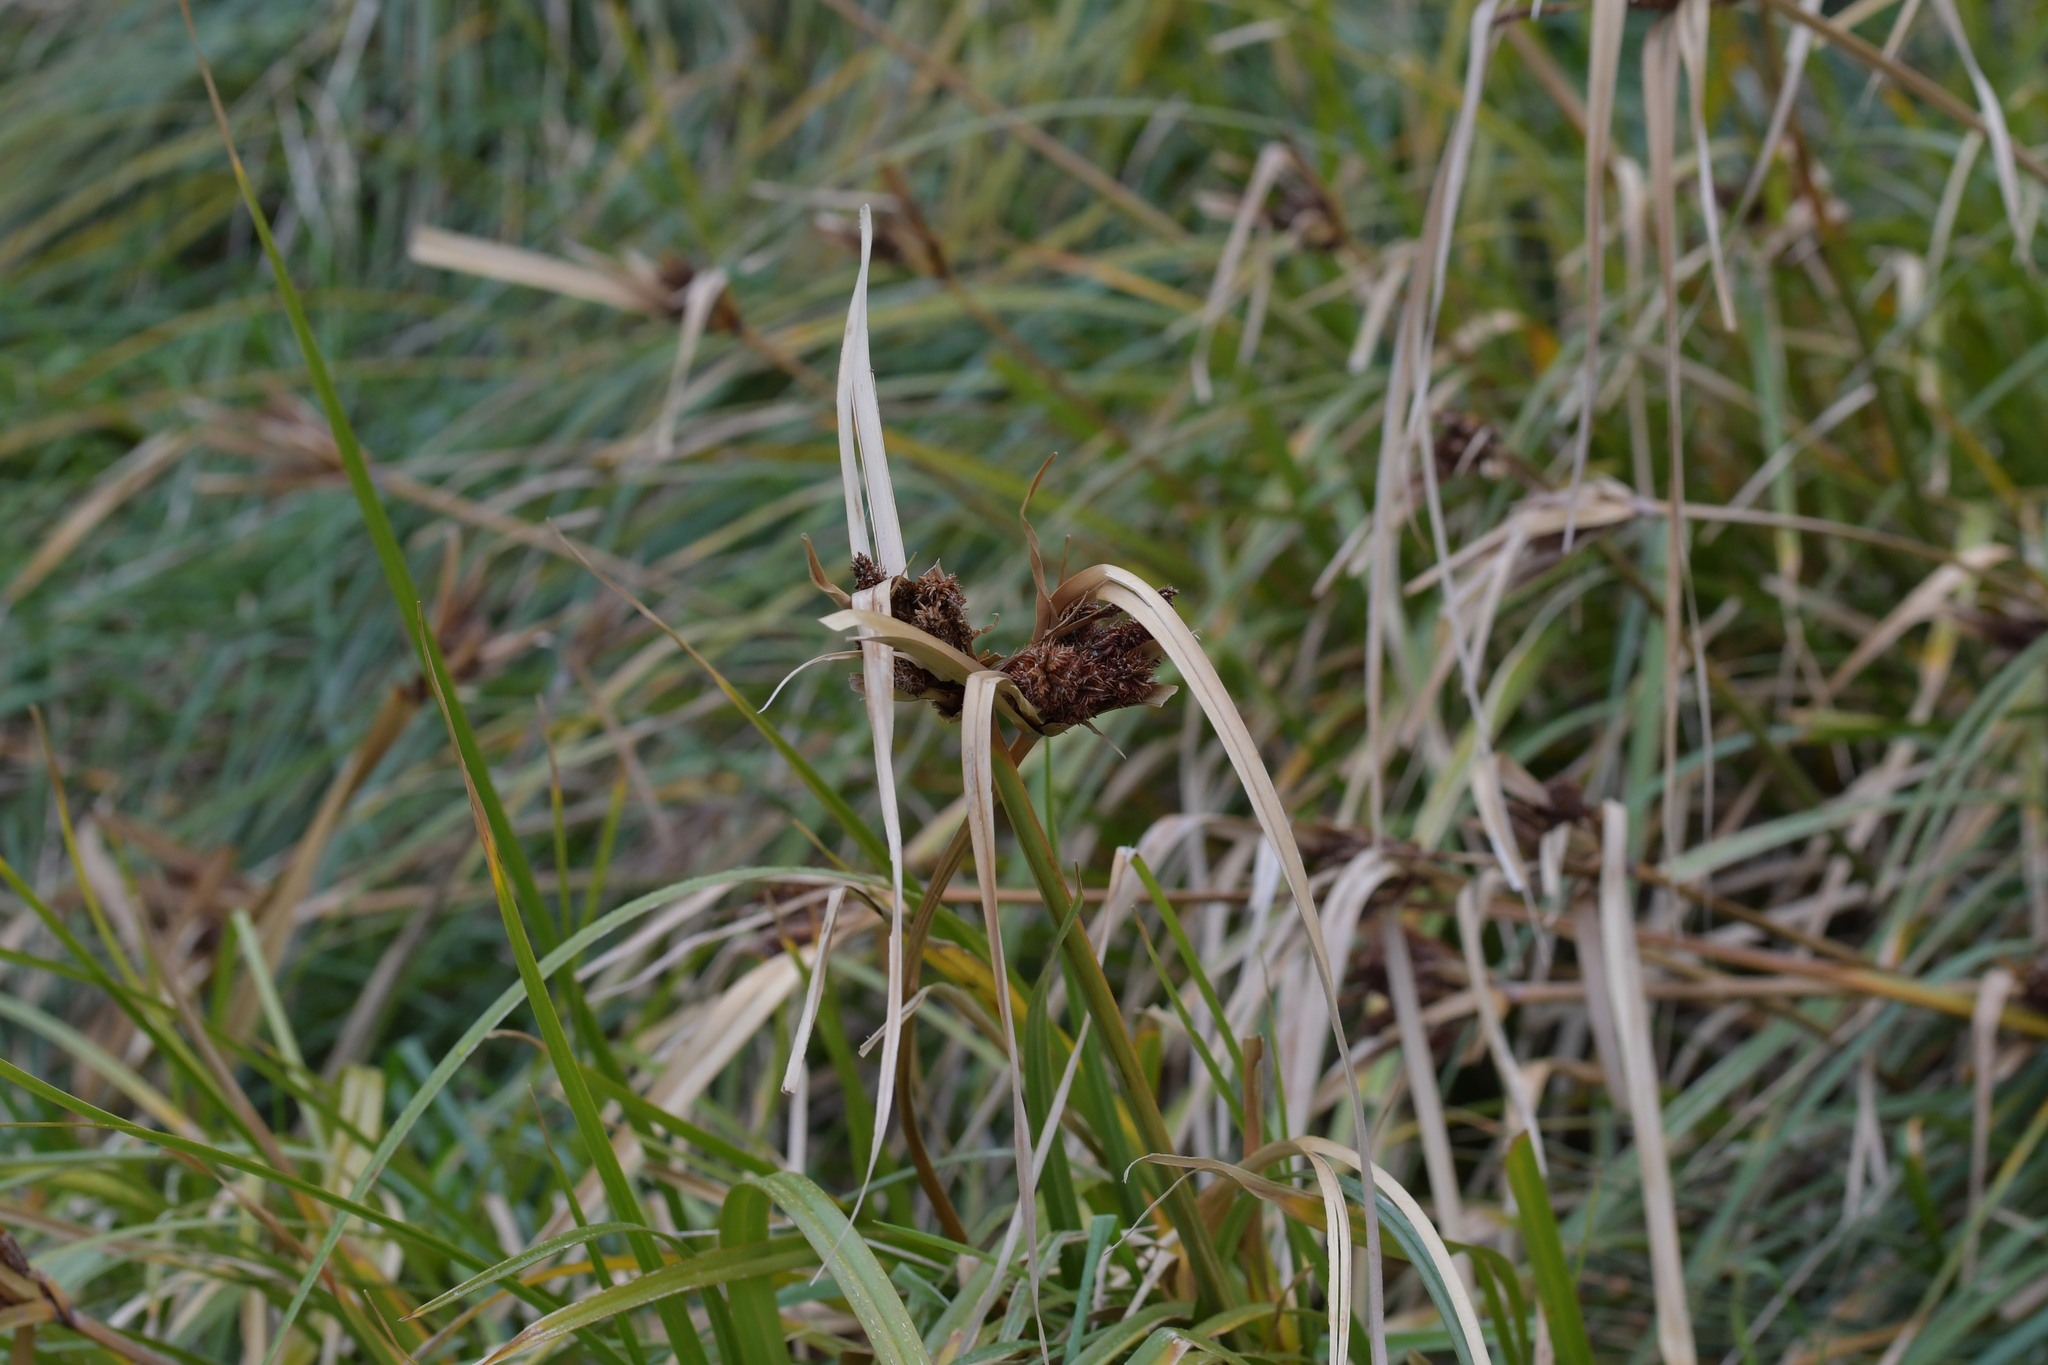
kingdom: Plantae
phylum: Tracheophyta
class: Liliopsida
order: Poales
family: Cyperaceae
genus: Cyperus
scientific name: Cyperus ustulatus
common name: Giant umbrella-sedge
